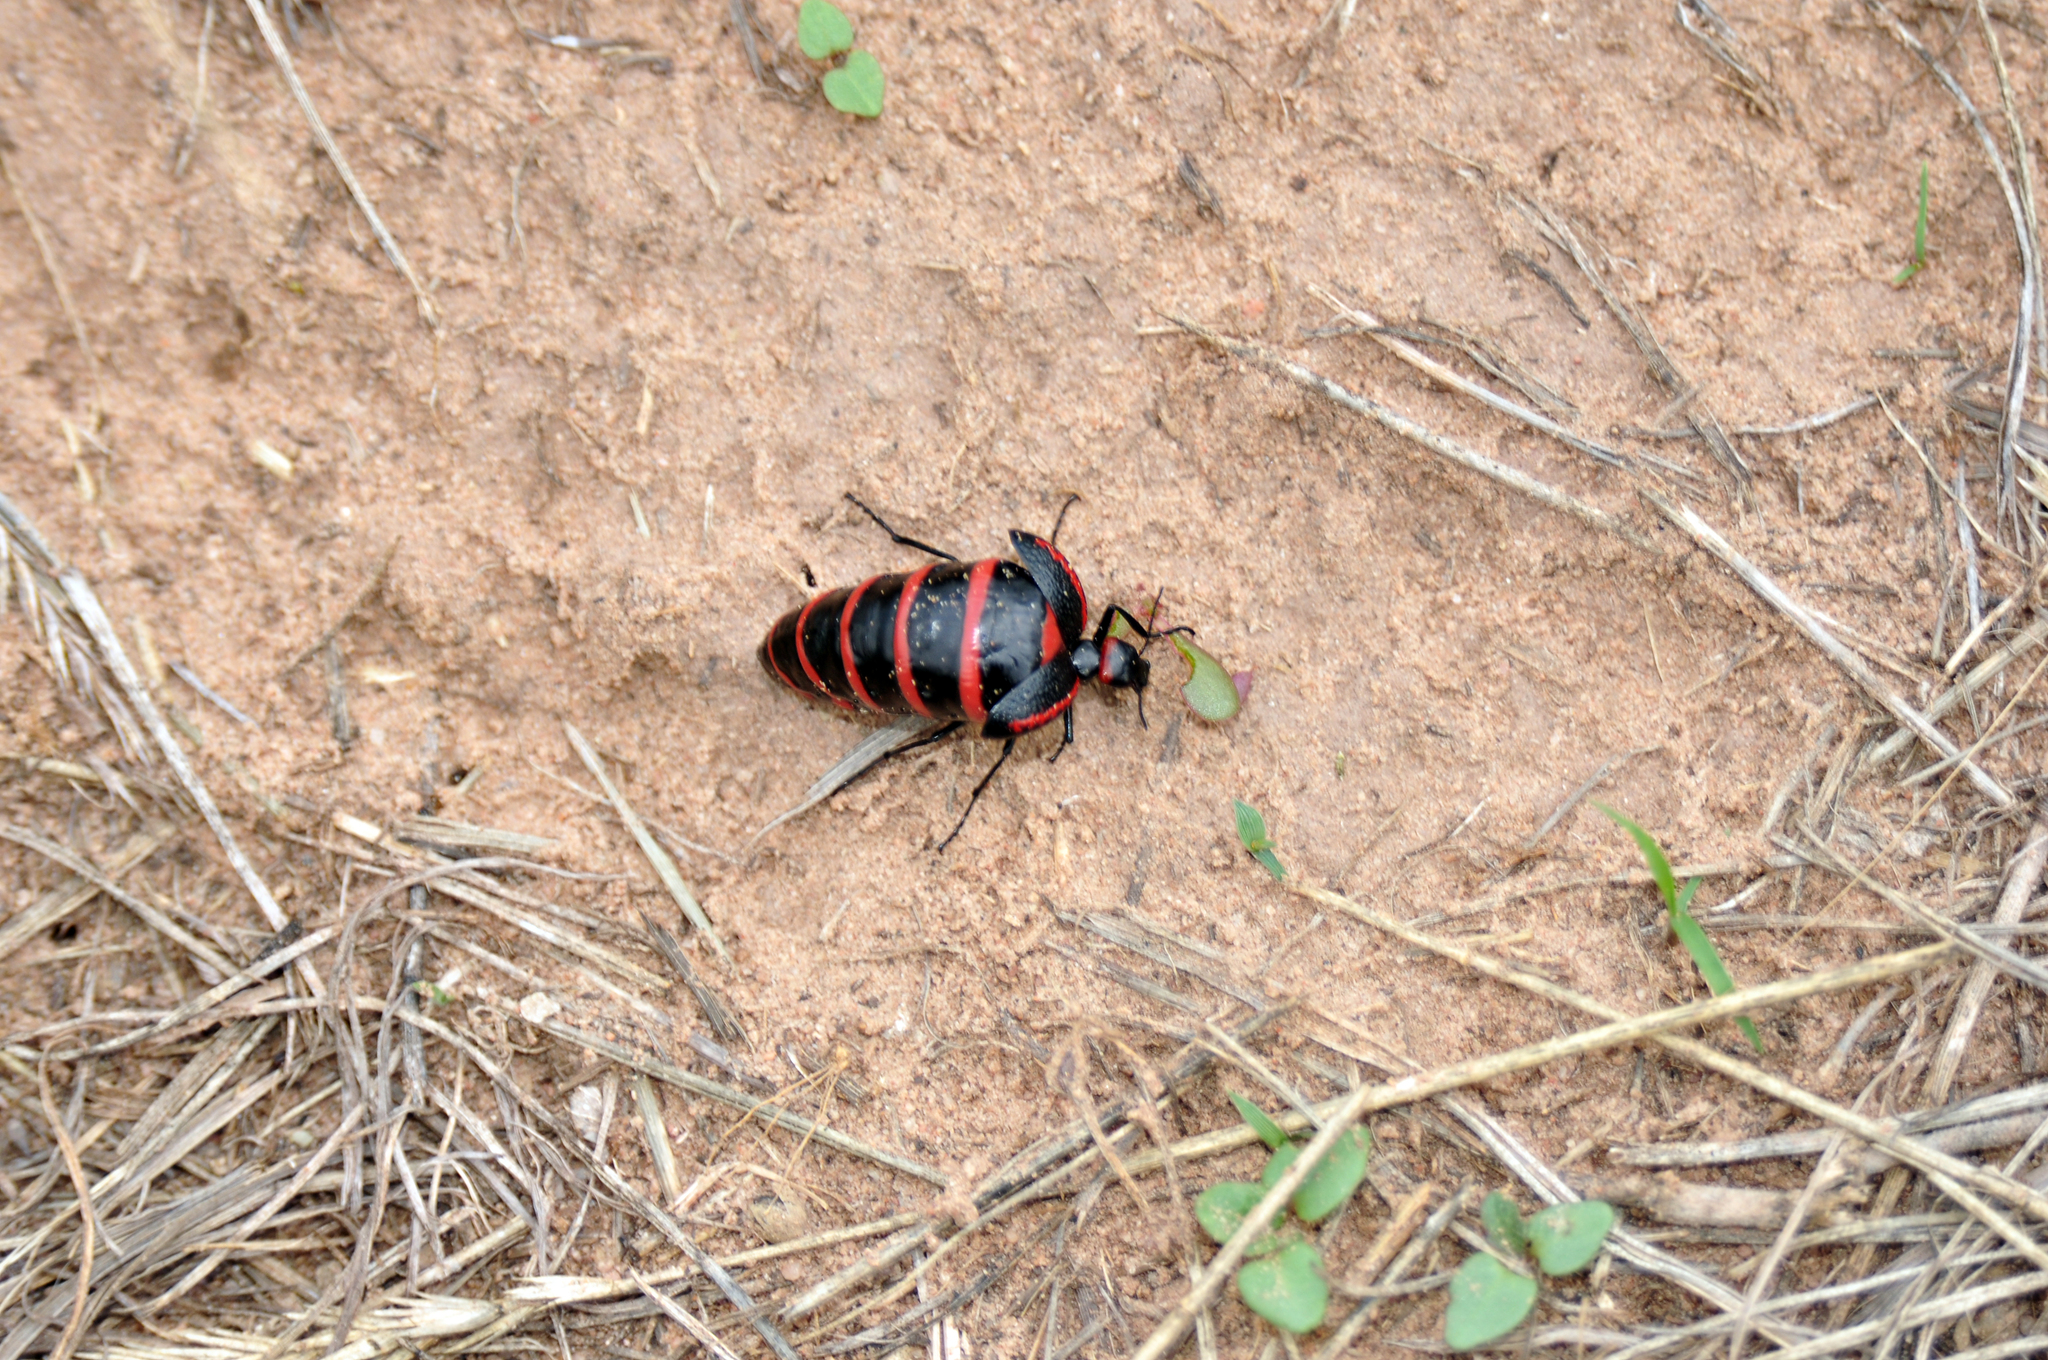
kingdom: Animalia
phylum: Arthropoda
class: Insecta
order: Coleoptera
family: Meloidae
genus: Megetra
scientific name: Megetra vittata
